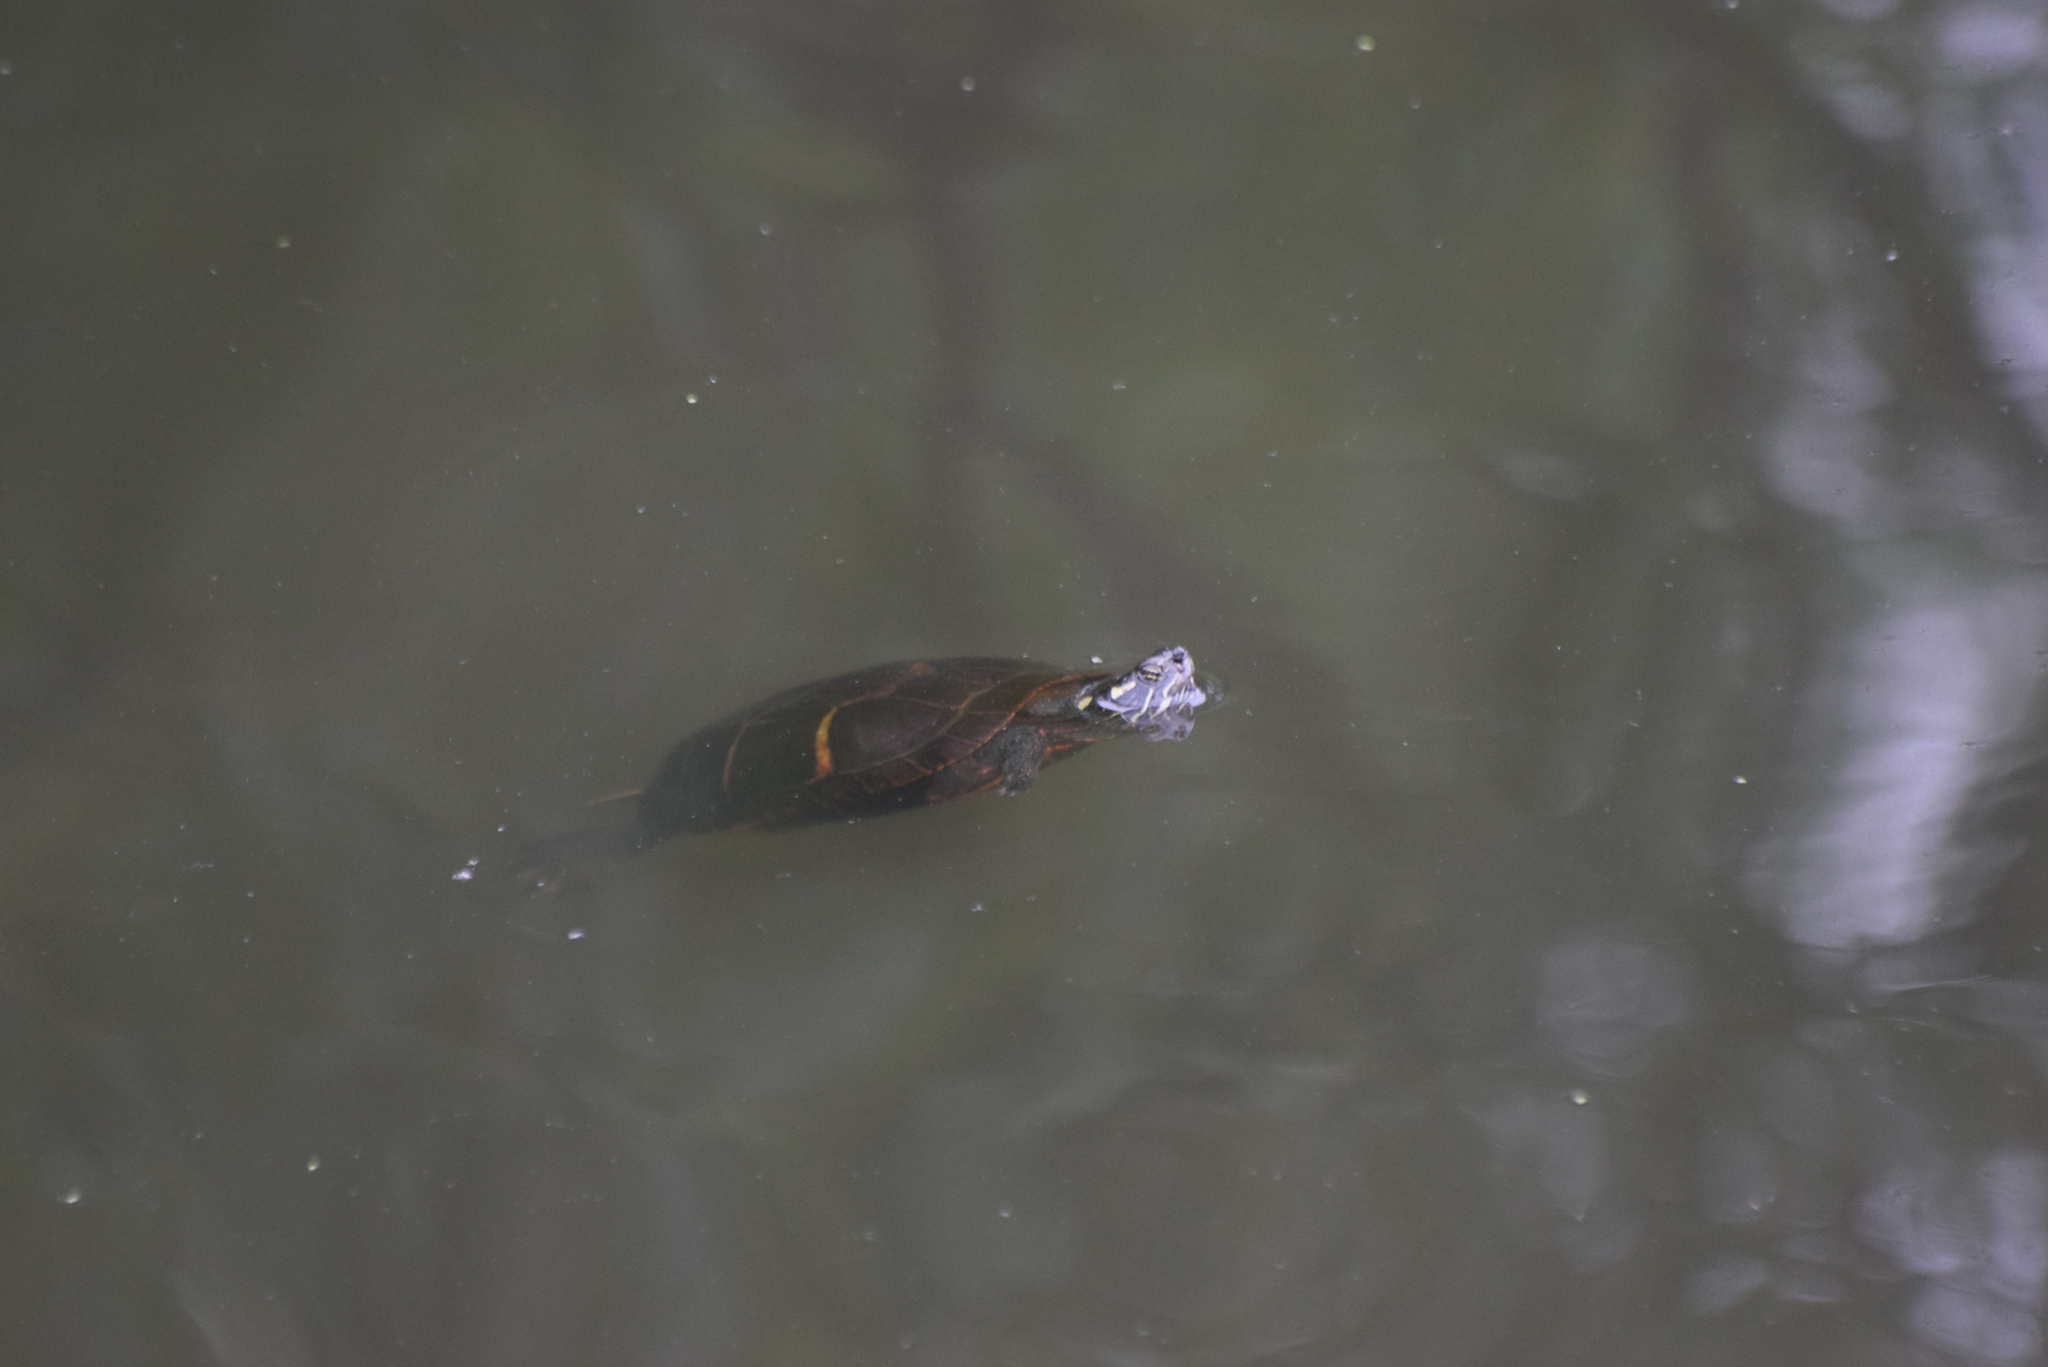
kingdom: Animalia
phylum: Chordata
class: Testudines
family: Emydidae
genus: Chrysemys
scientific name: Chrysemys picta
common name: Painted turtle
